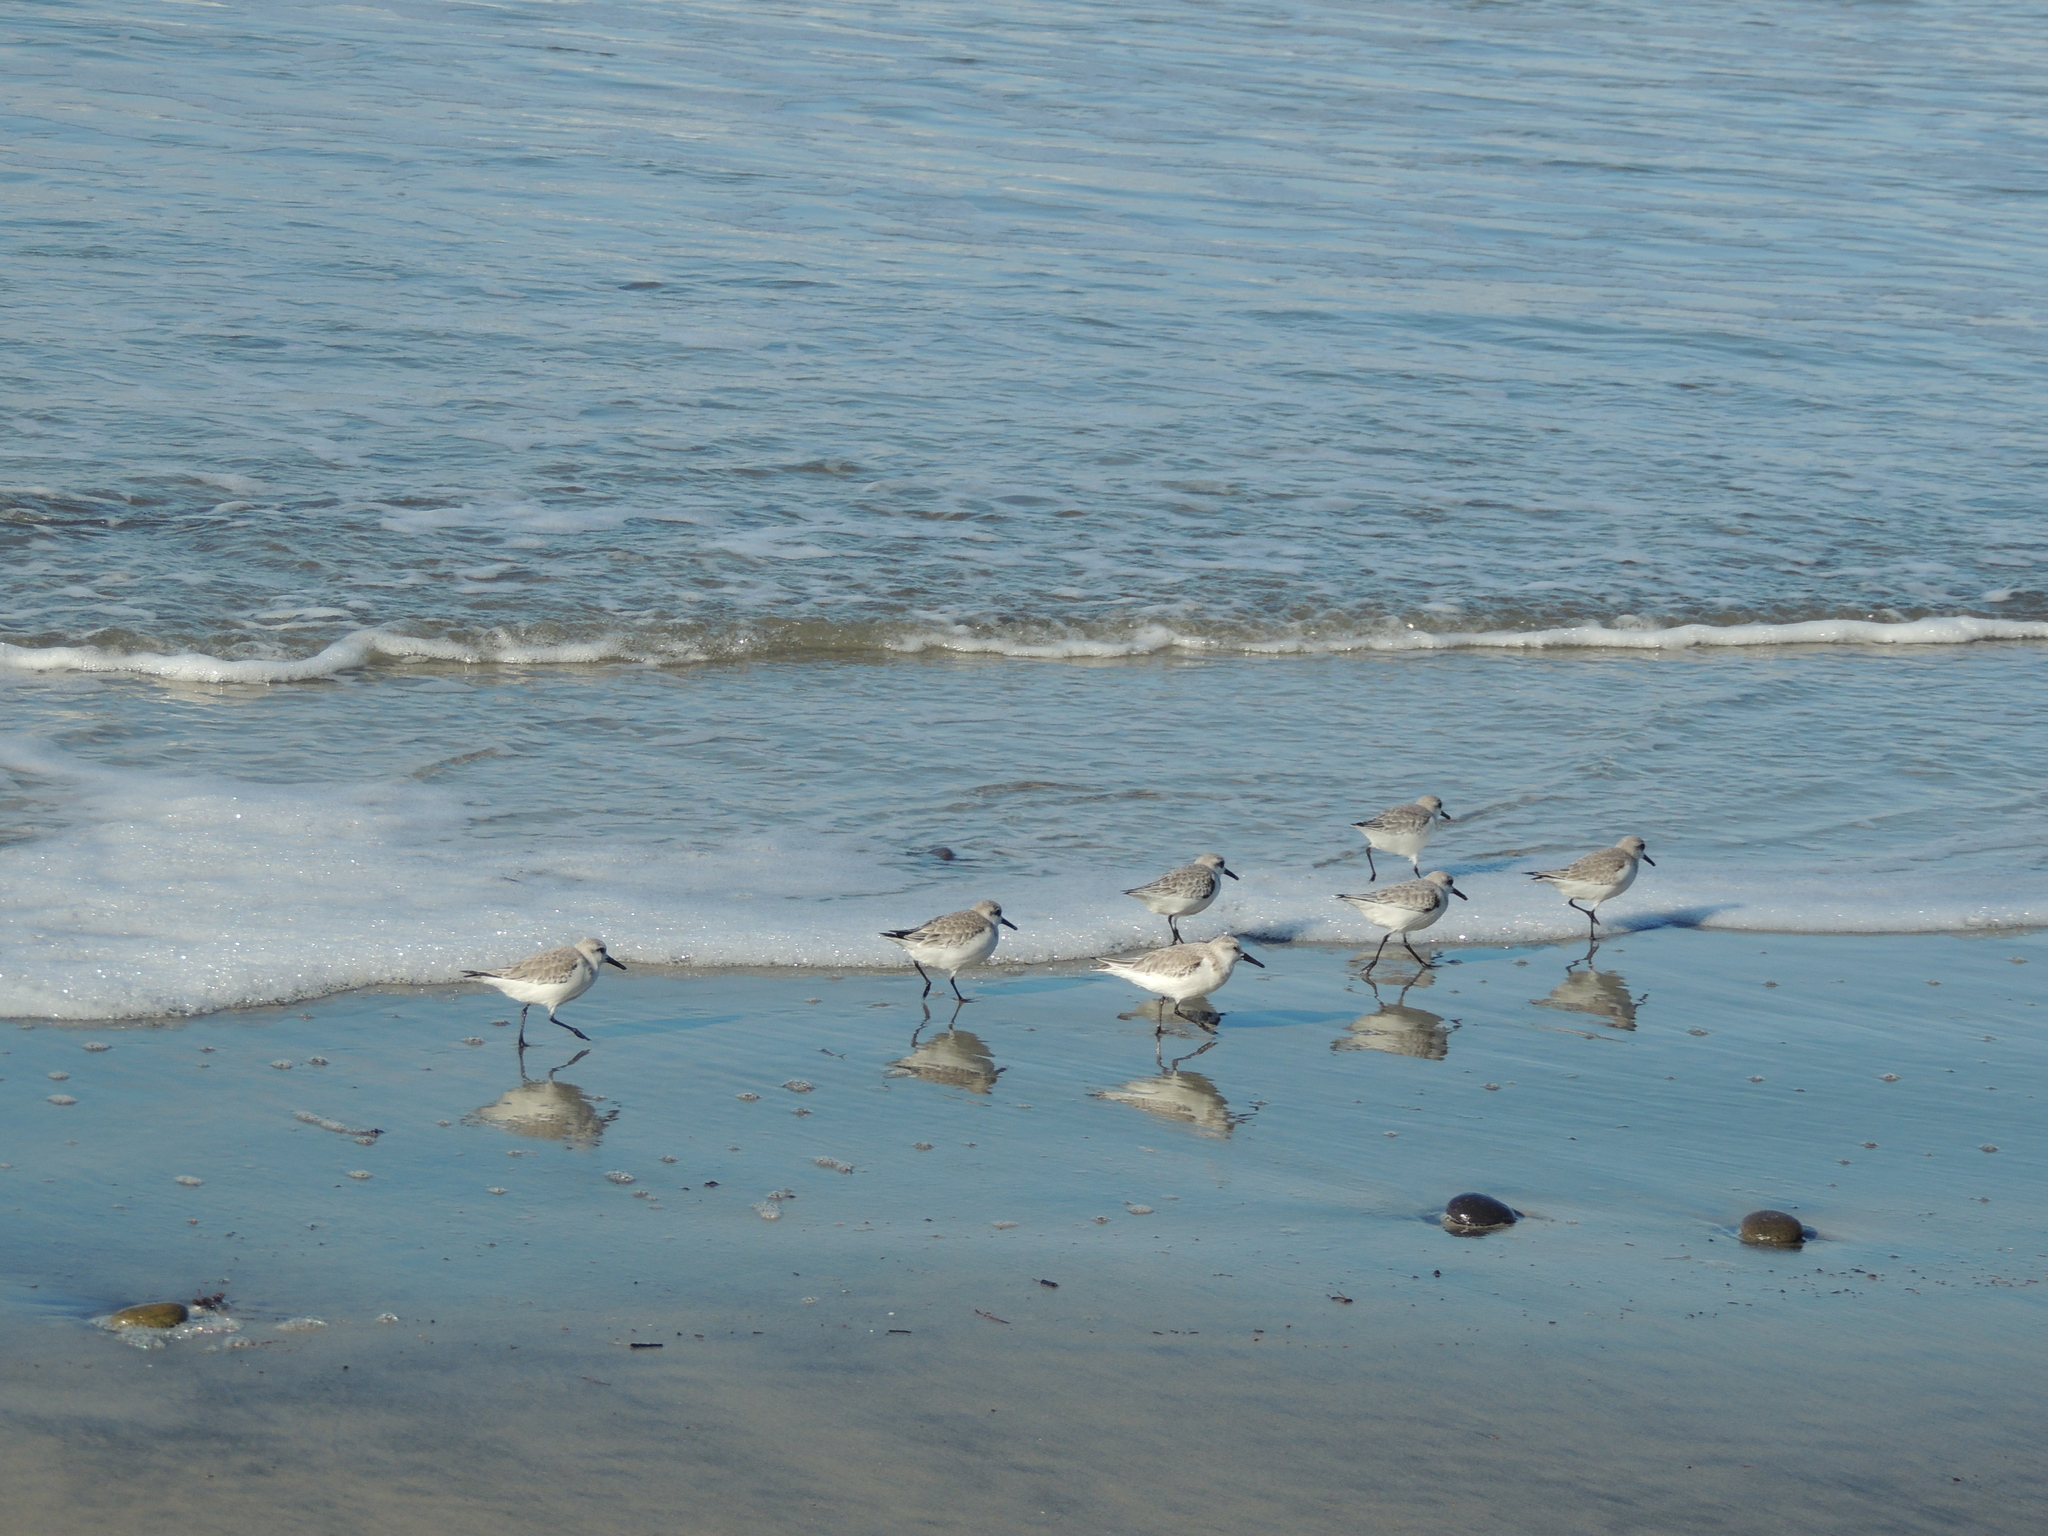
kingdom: Animalia
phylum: Chordata
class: Aves
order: Charadriiformes
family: Scolopacidae
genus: Calidris
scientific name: Calidris alba
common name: Sanderling
